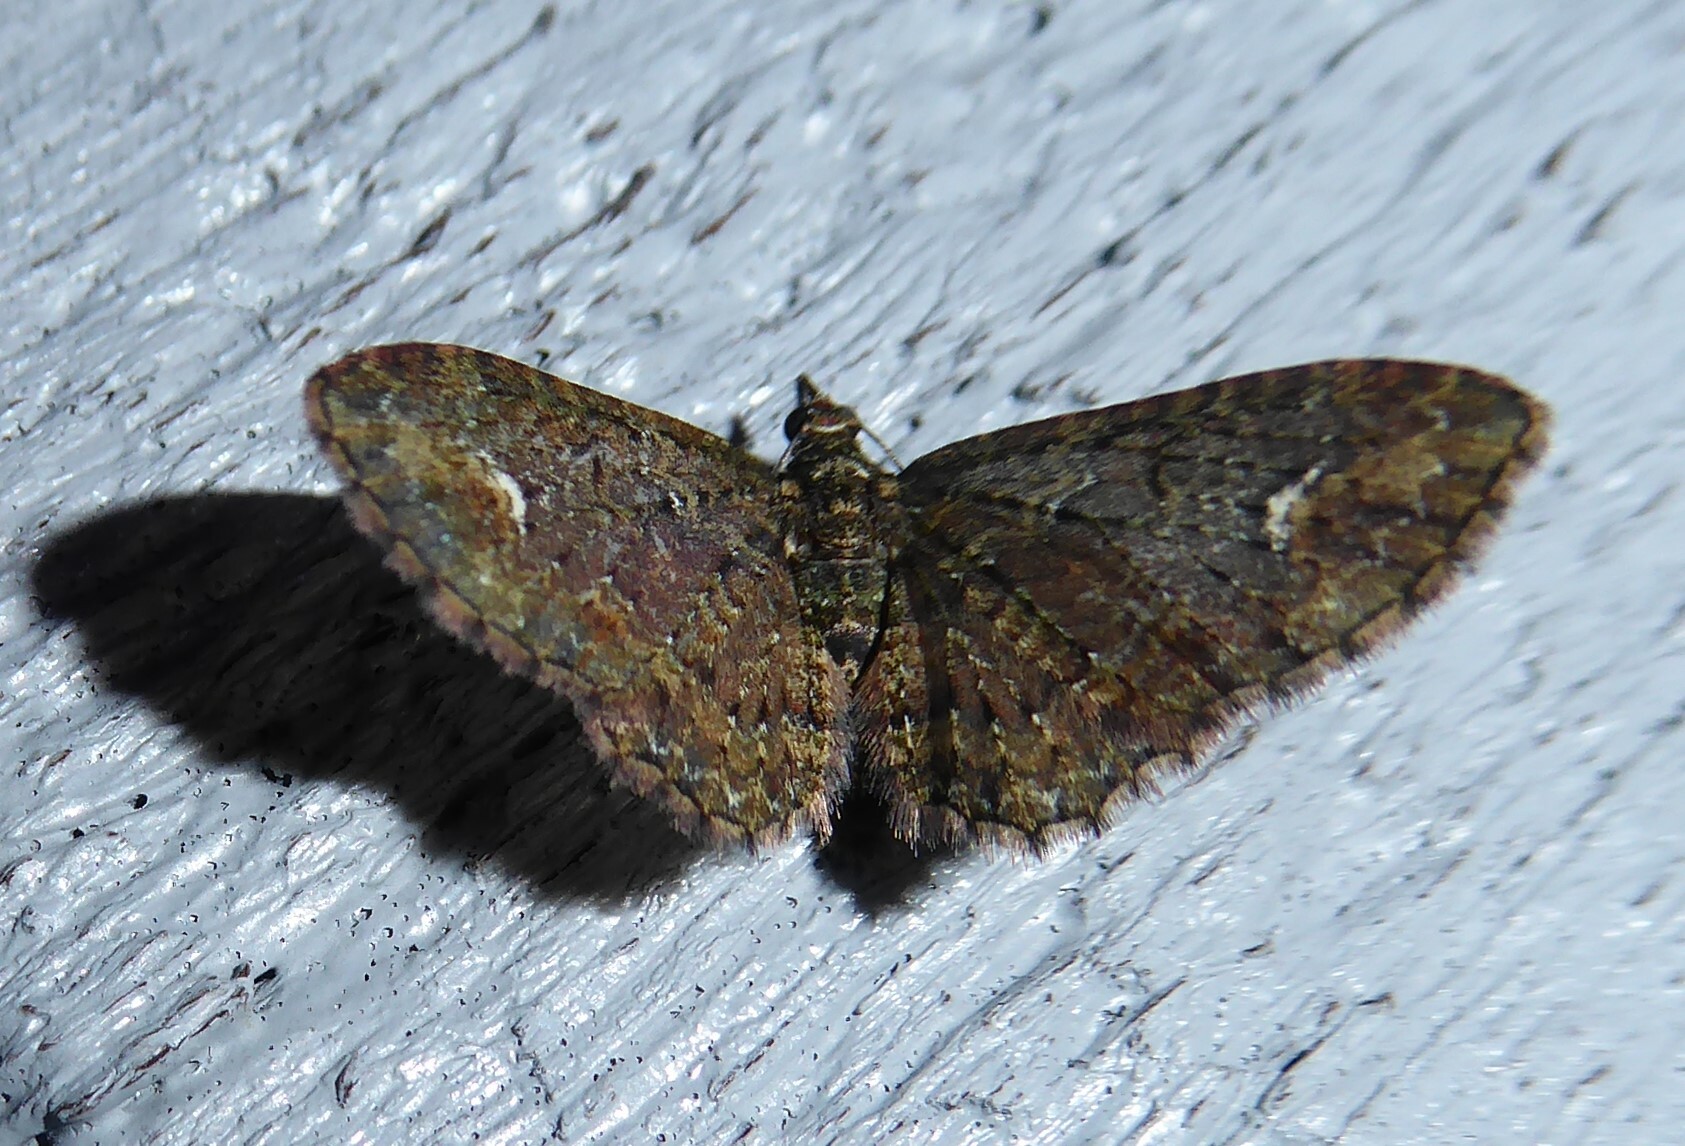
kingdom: Animalia
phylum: Arthropoda
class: Insecta
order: Lepidoptera
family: Geometridae
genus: Pasiphilodes
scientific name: Pasiphilodes testulata
